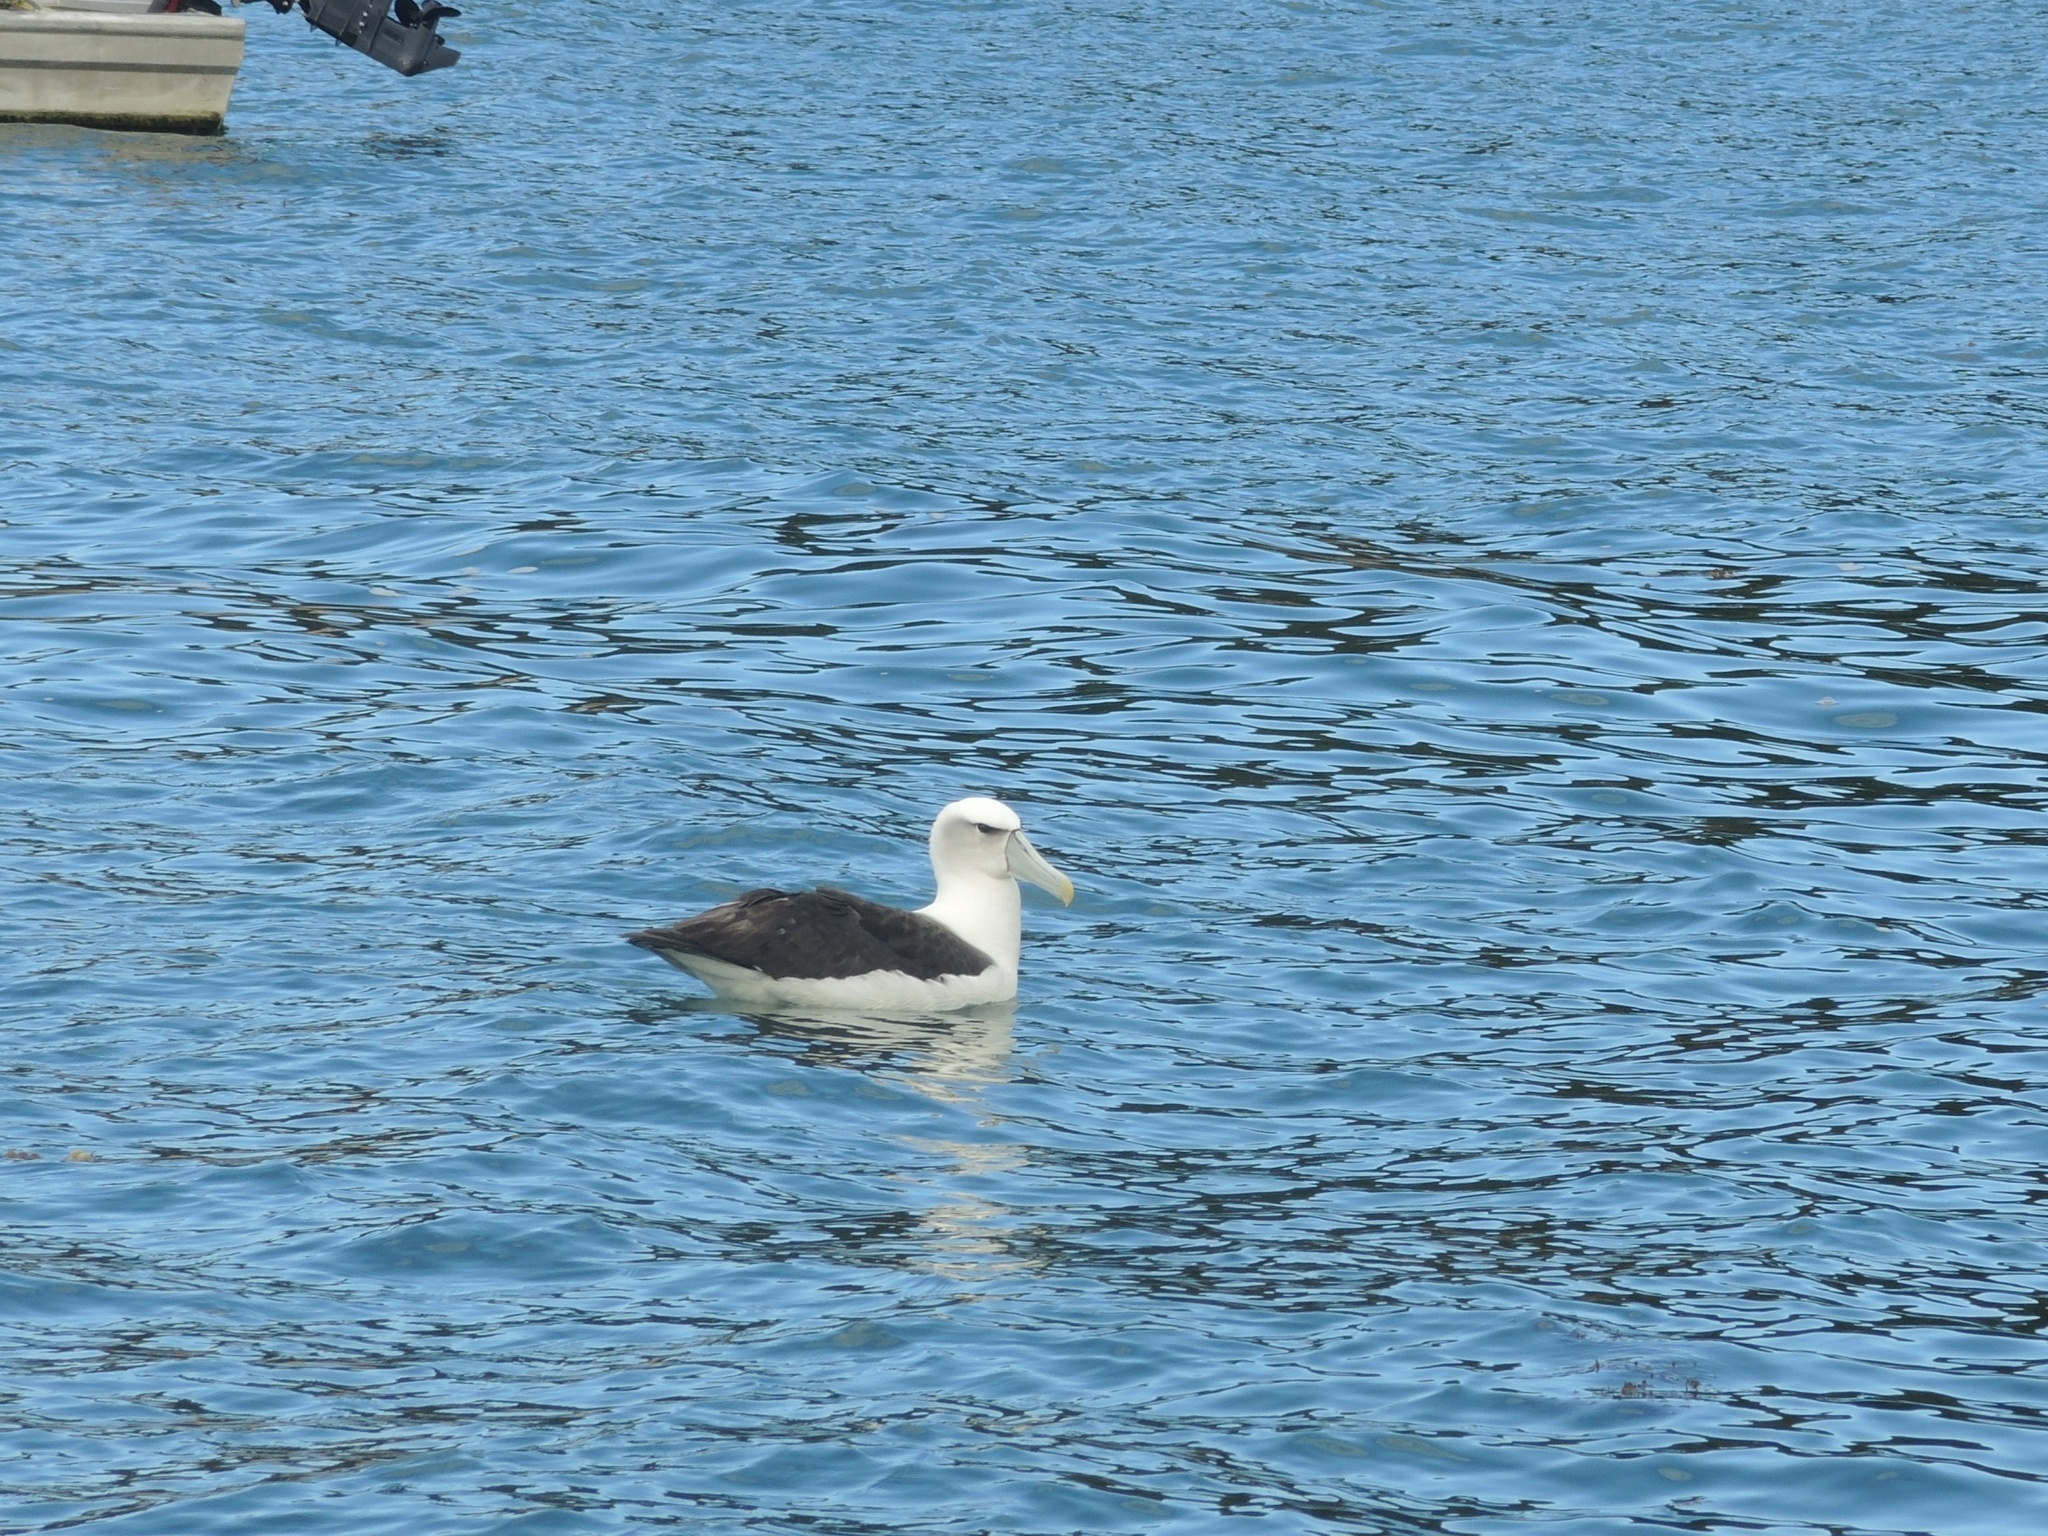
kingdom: Animalia
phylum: Chordata
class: Aves
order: Procellariiformes
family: Diomedeidae
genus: Thalassarche
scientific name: Thalassarche cauta
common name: Shy albatross
